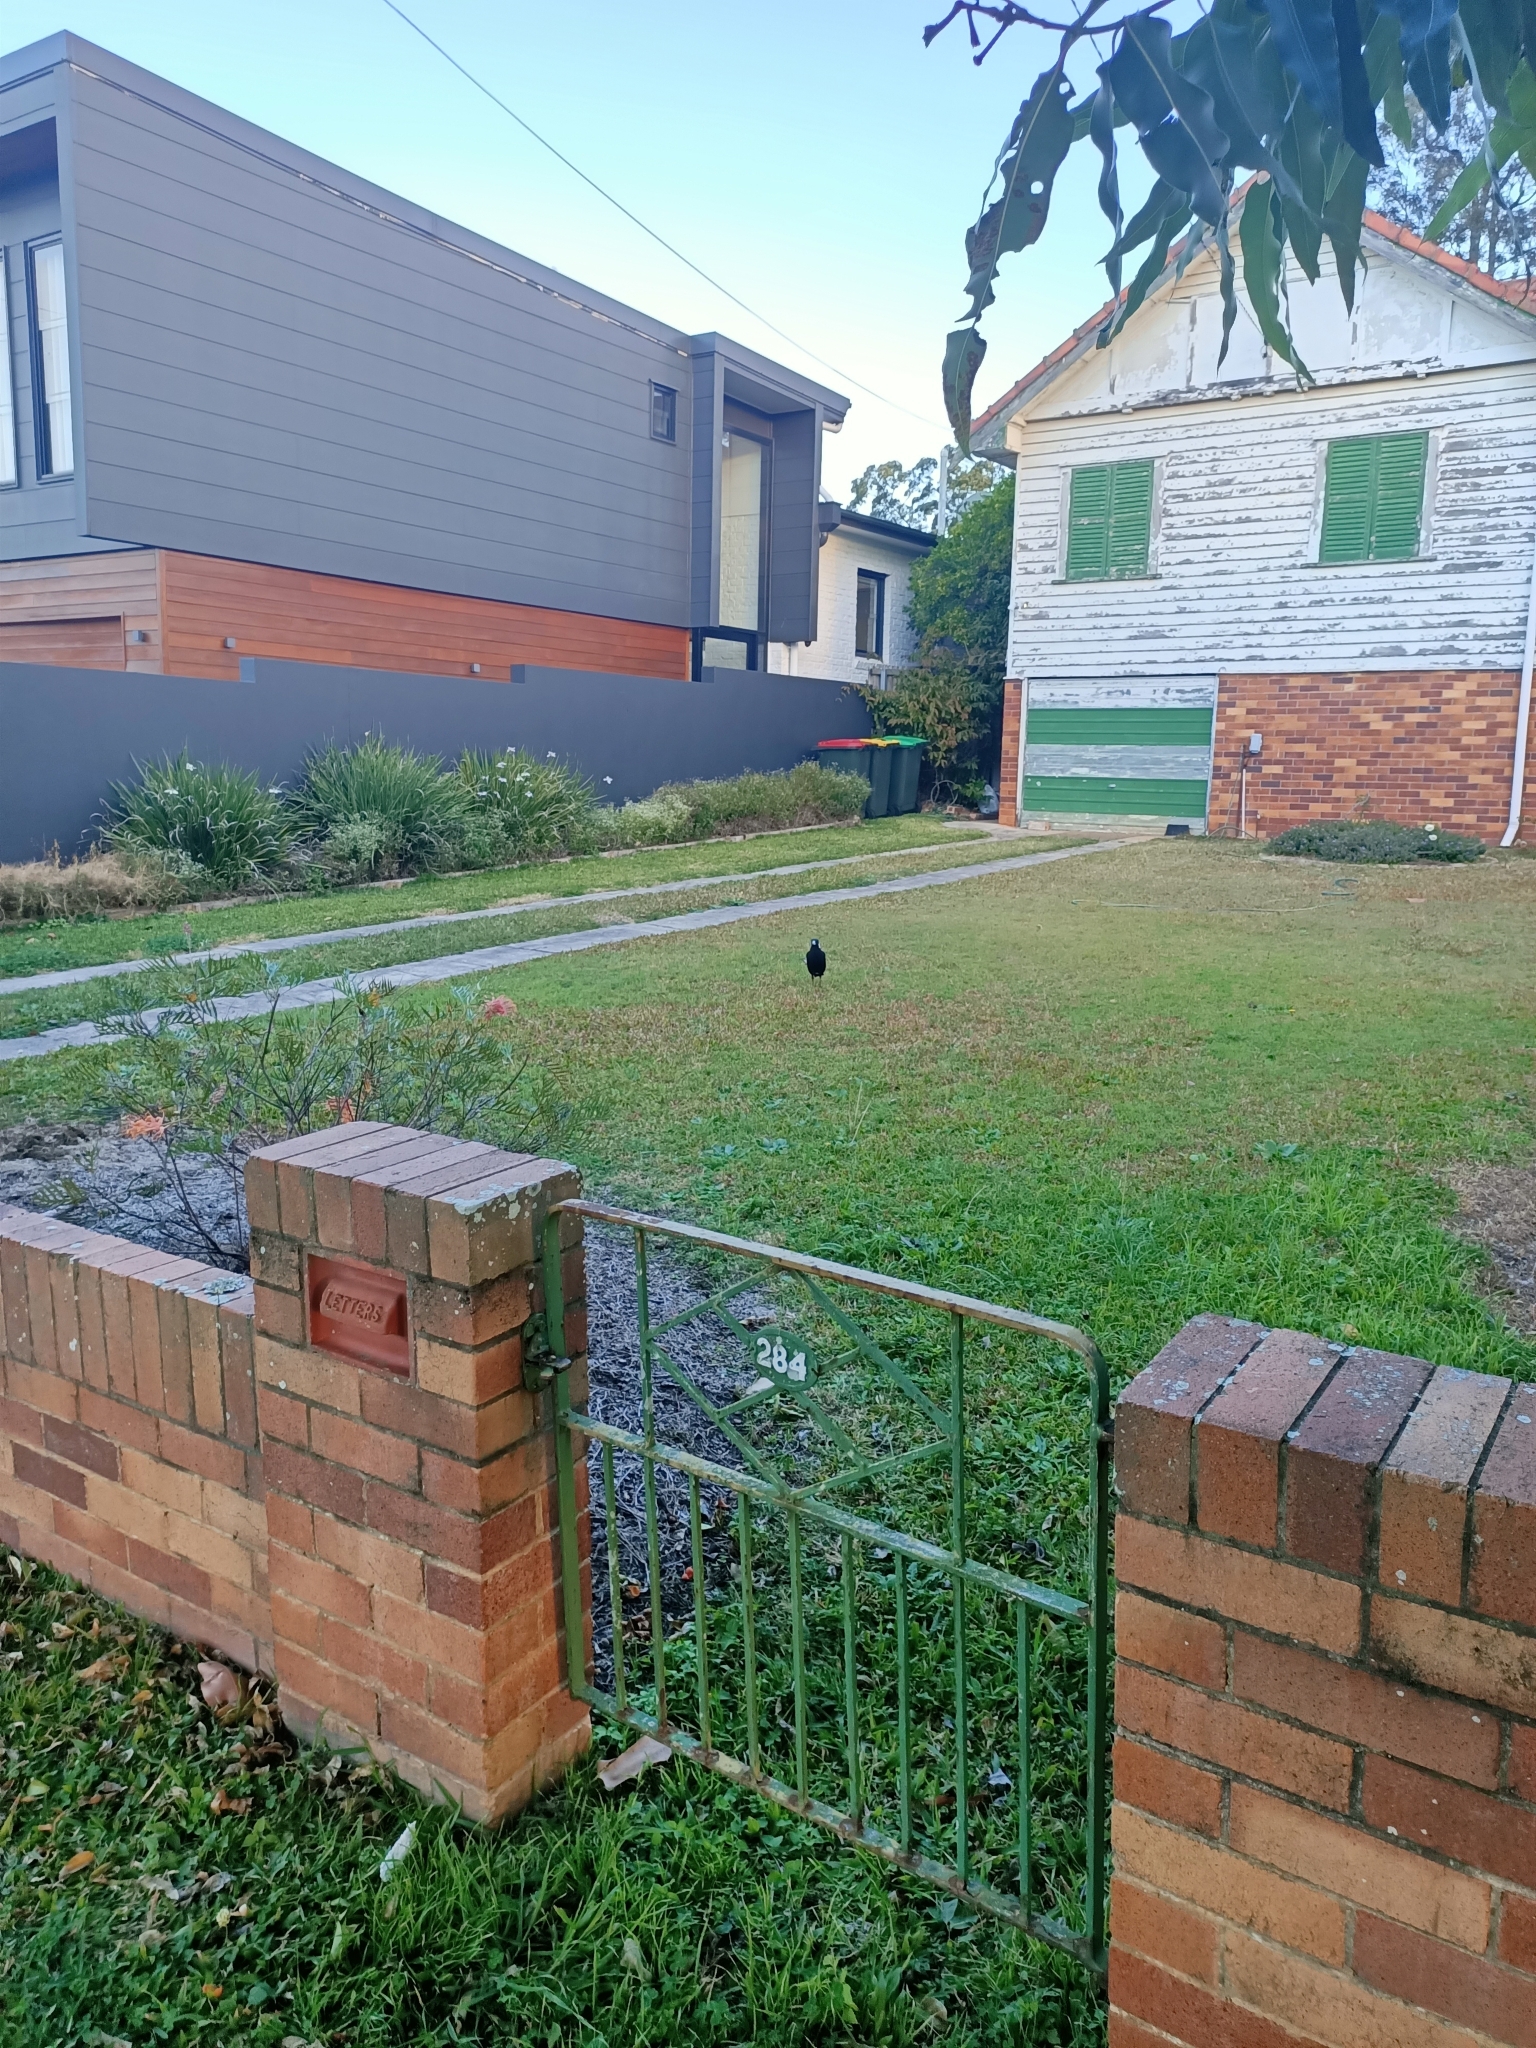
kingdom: Animalia
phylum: Chordata
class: Aves
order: Passeriformes
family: Cracticidae
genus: Gymnorhina
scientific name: Gymnorhina tibicen
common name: Australian magpie
